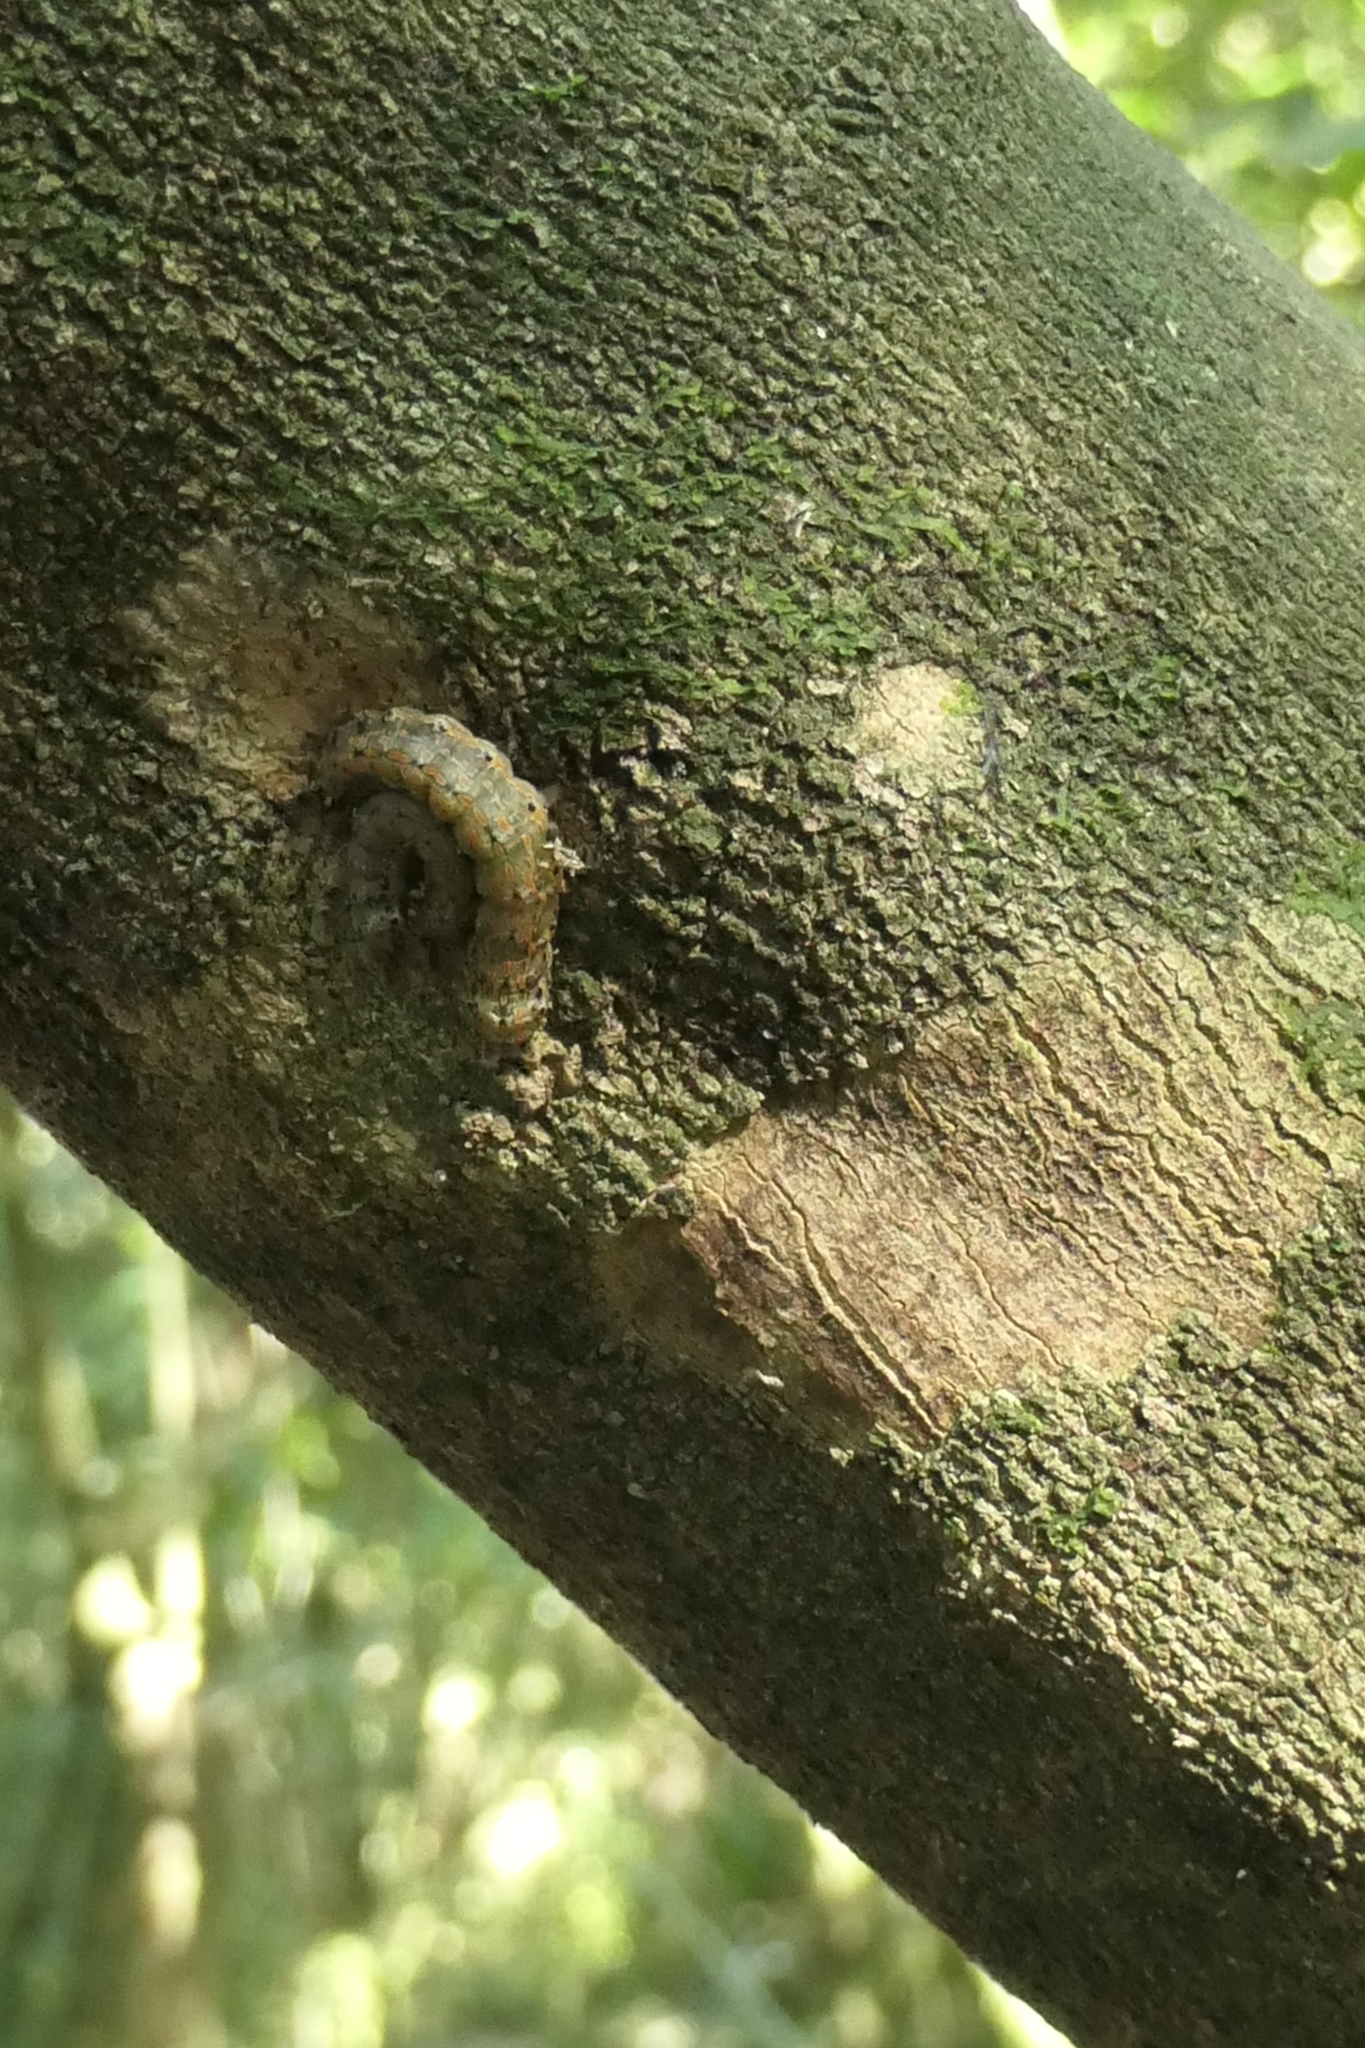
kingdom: Animalia
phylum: Arthropoda
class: Insecta
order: Lepidoptera
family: Noctuidae
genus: Austramathes
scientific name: Austramathes purpurea
